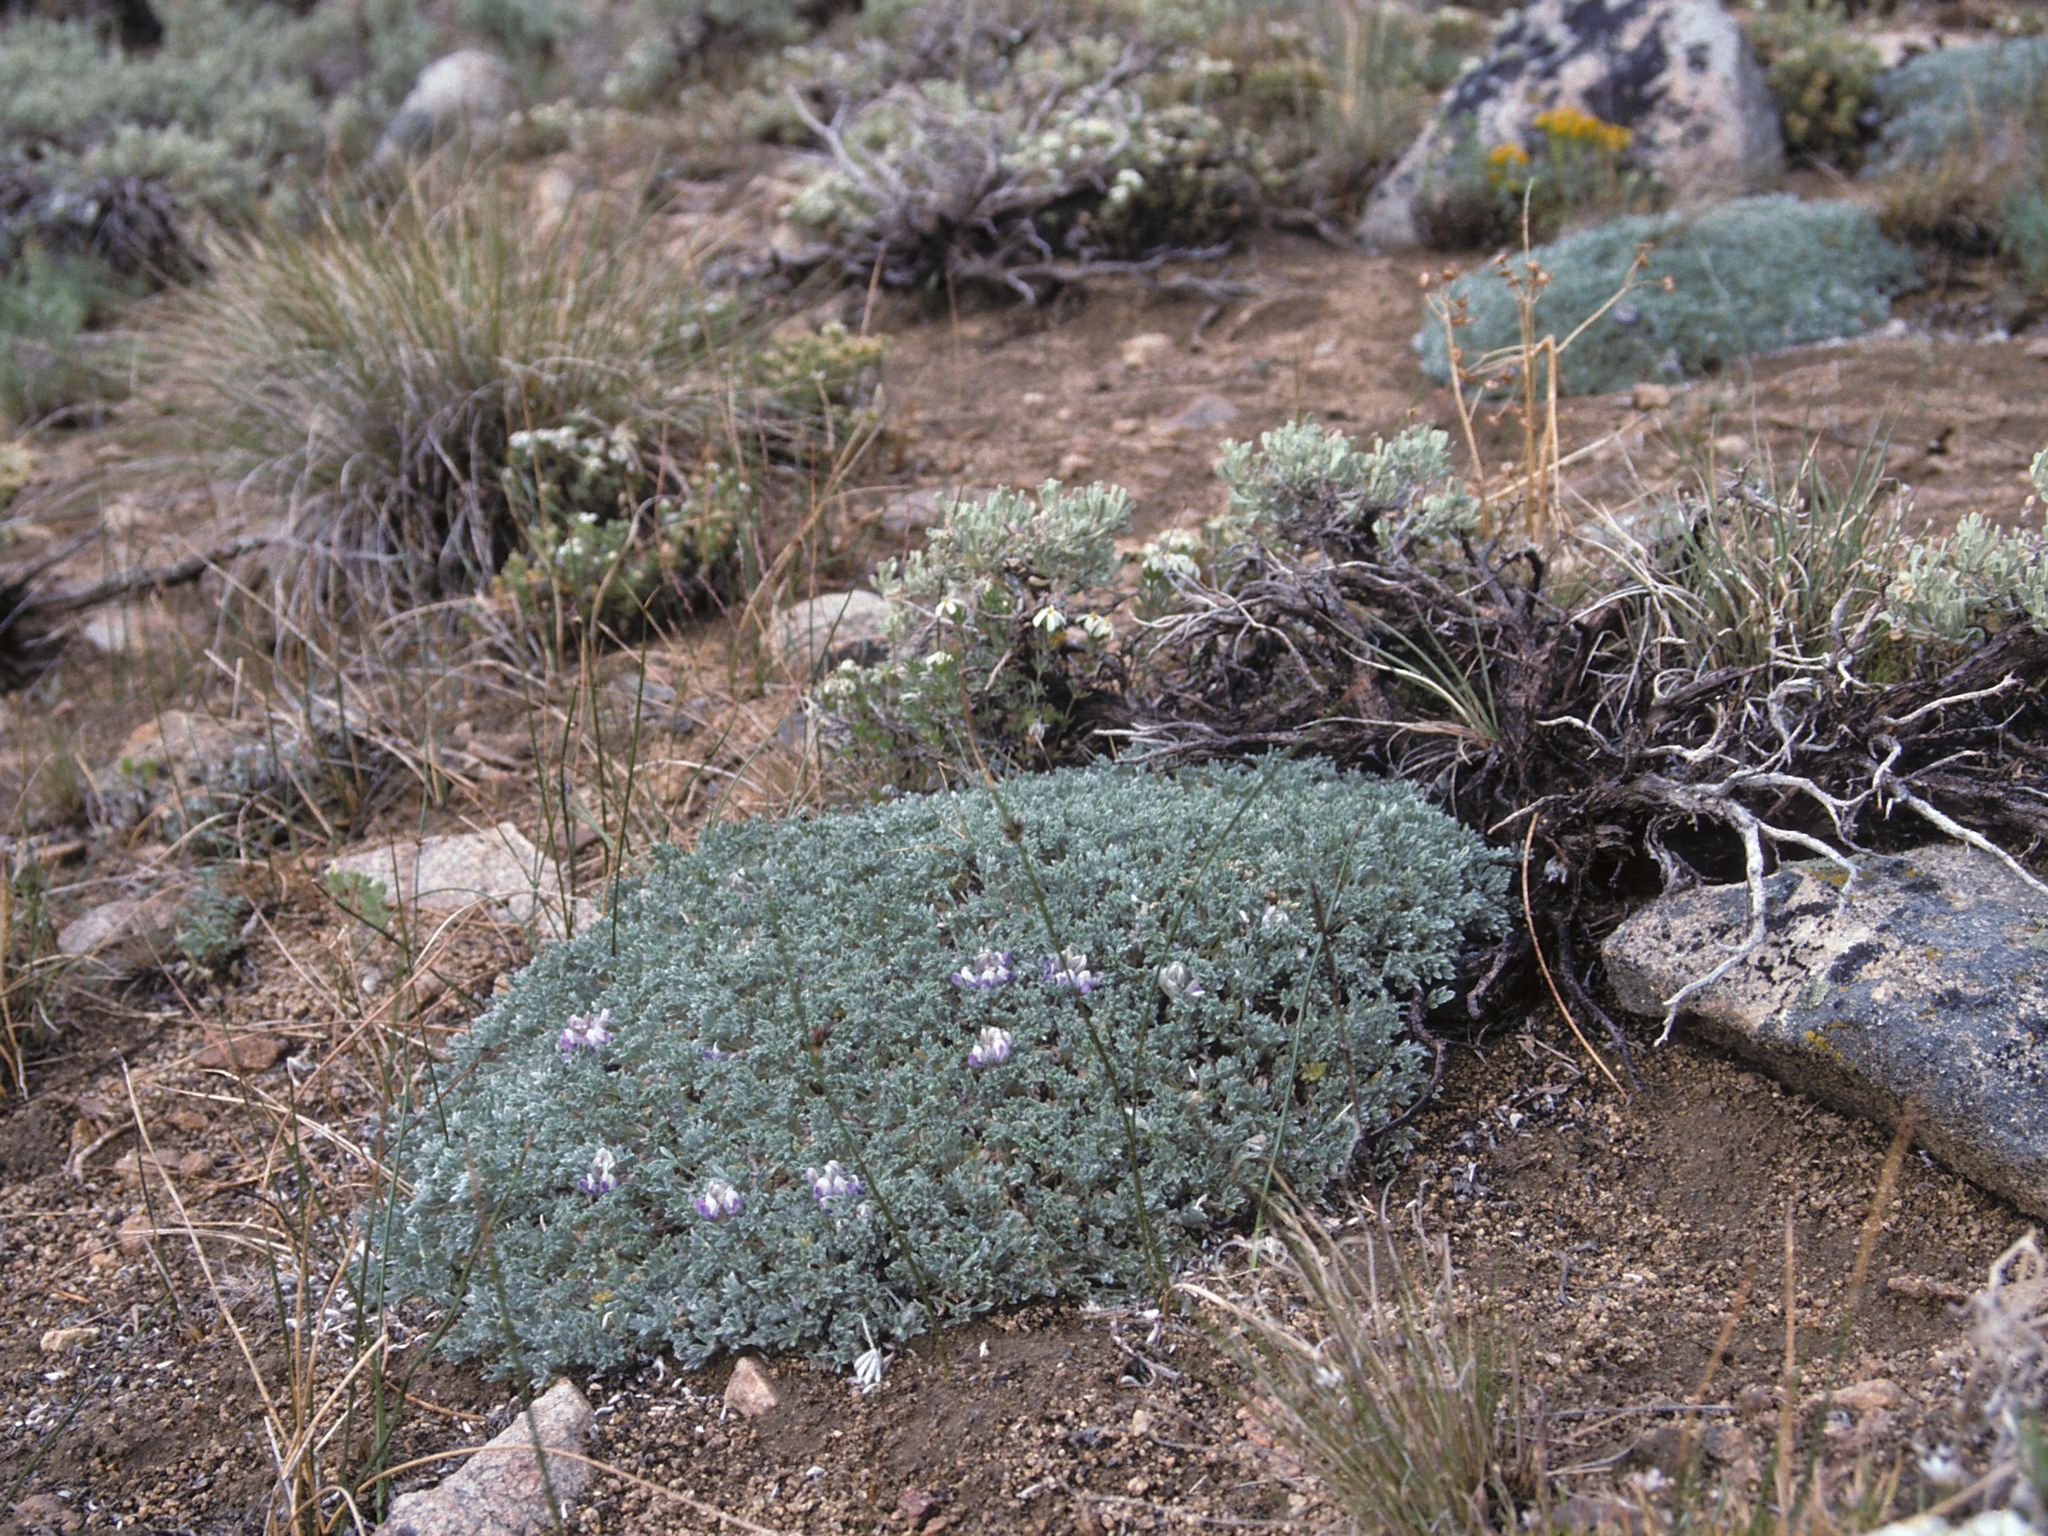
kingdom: Plantae
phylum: Tracheophyta
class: Magnoliopsida
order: Fabales
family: Fabaceae
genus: Lupinus
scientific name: Lupinus breweri
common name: Brewer's lupine
